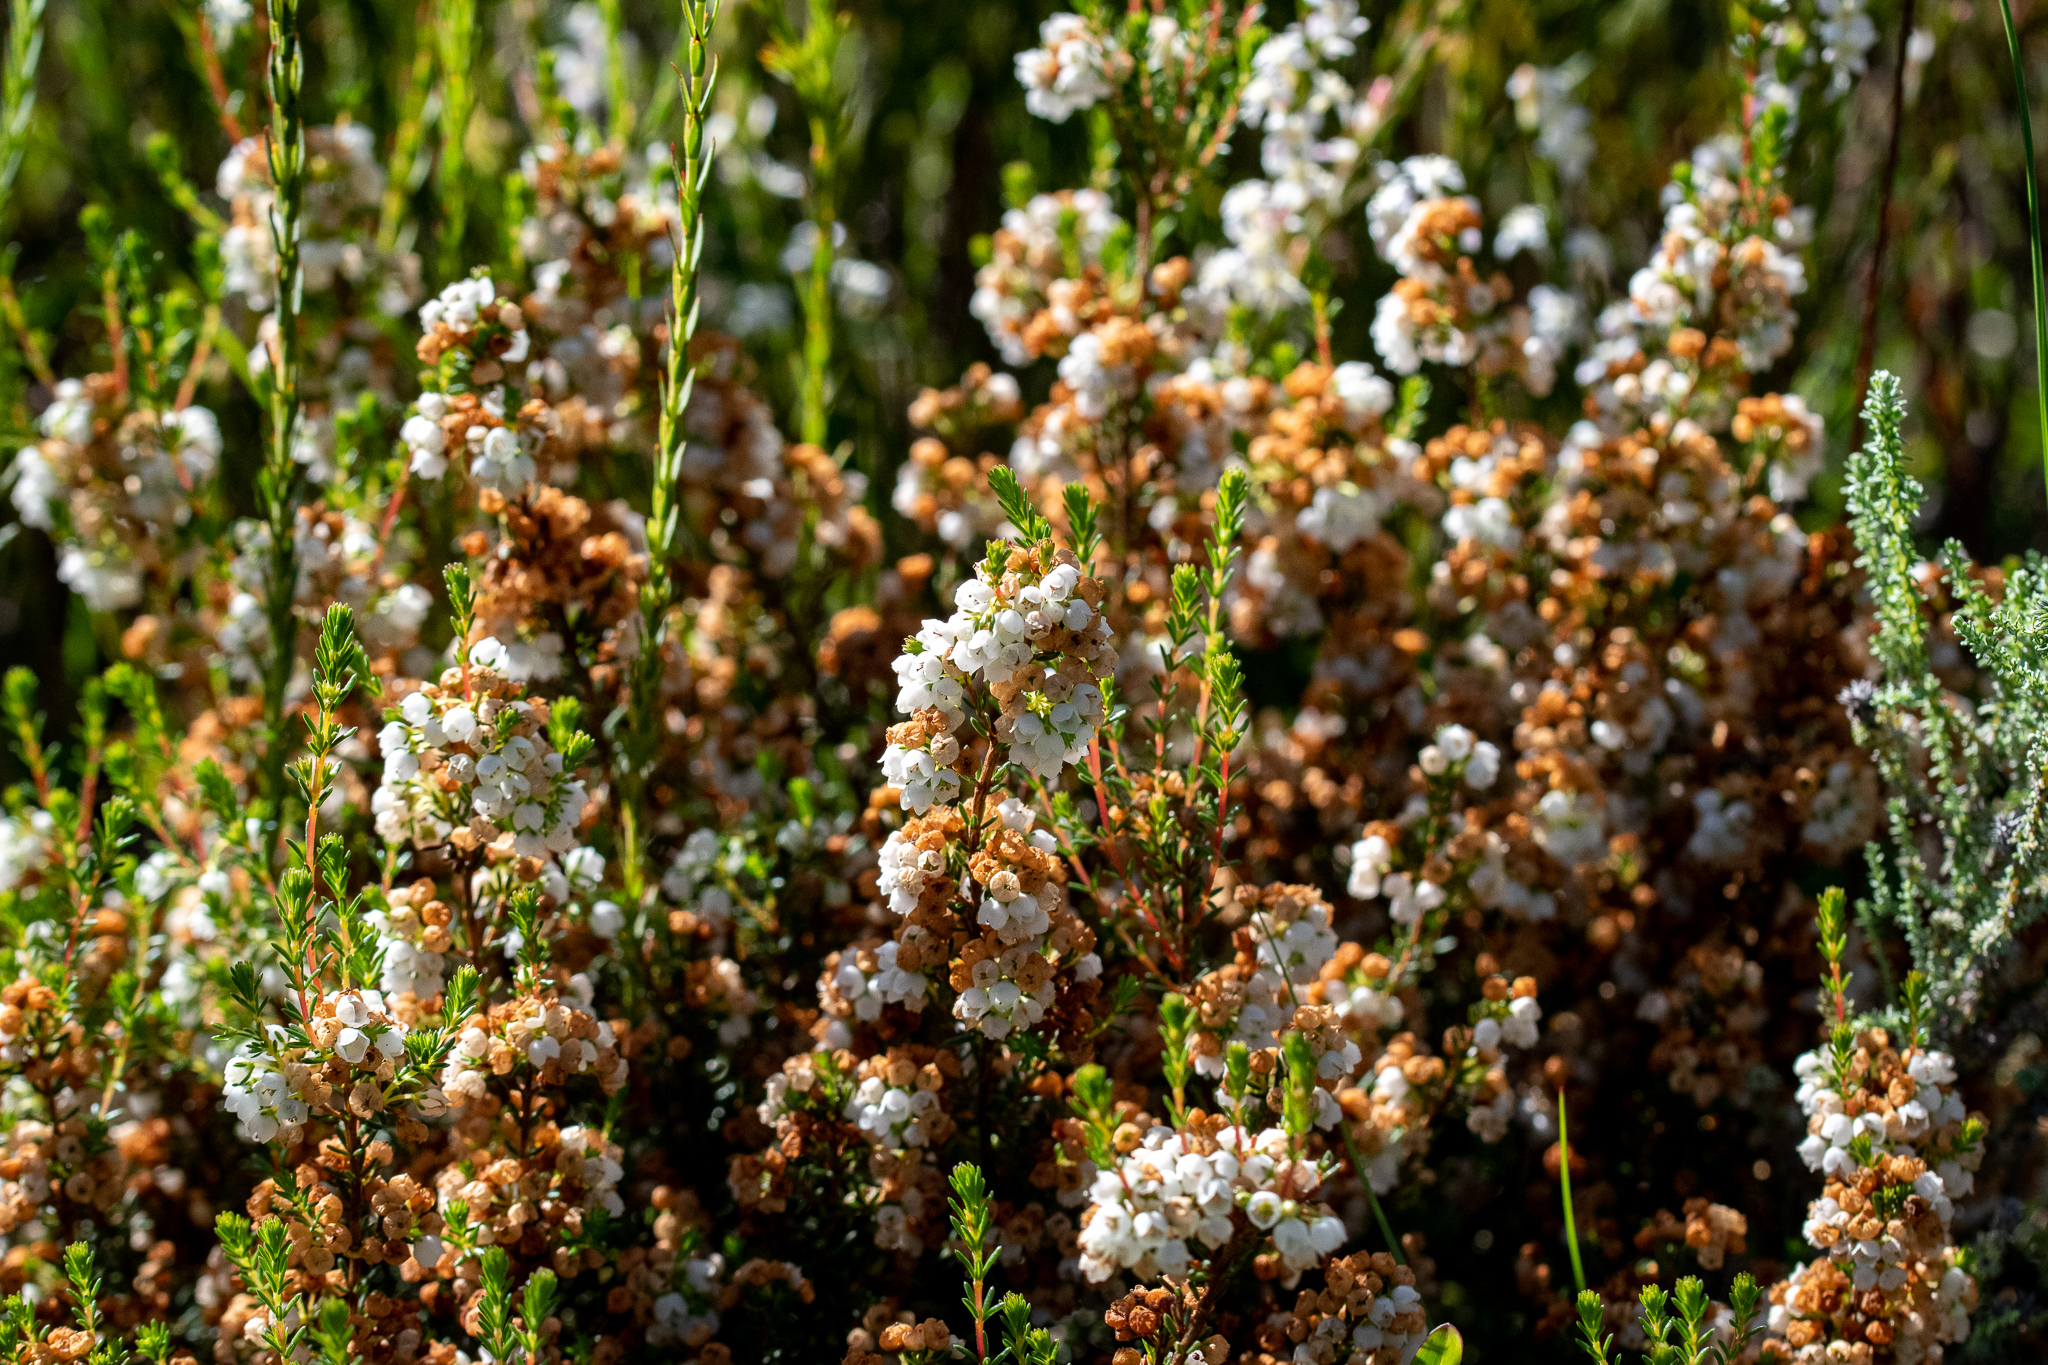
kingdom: Plantae
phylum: Tracheophyta
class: Magnoliopsida
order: Ericales
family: Ericaceae
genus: Erica
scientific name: Erica subdivaricata
